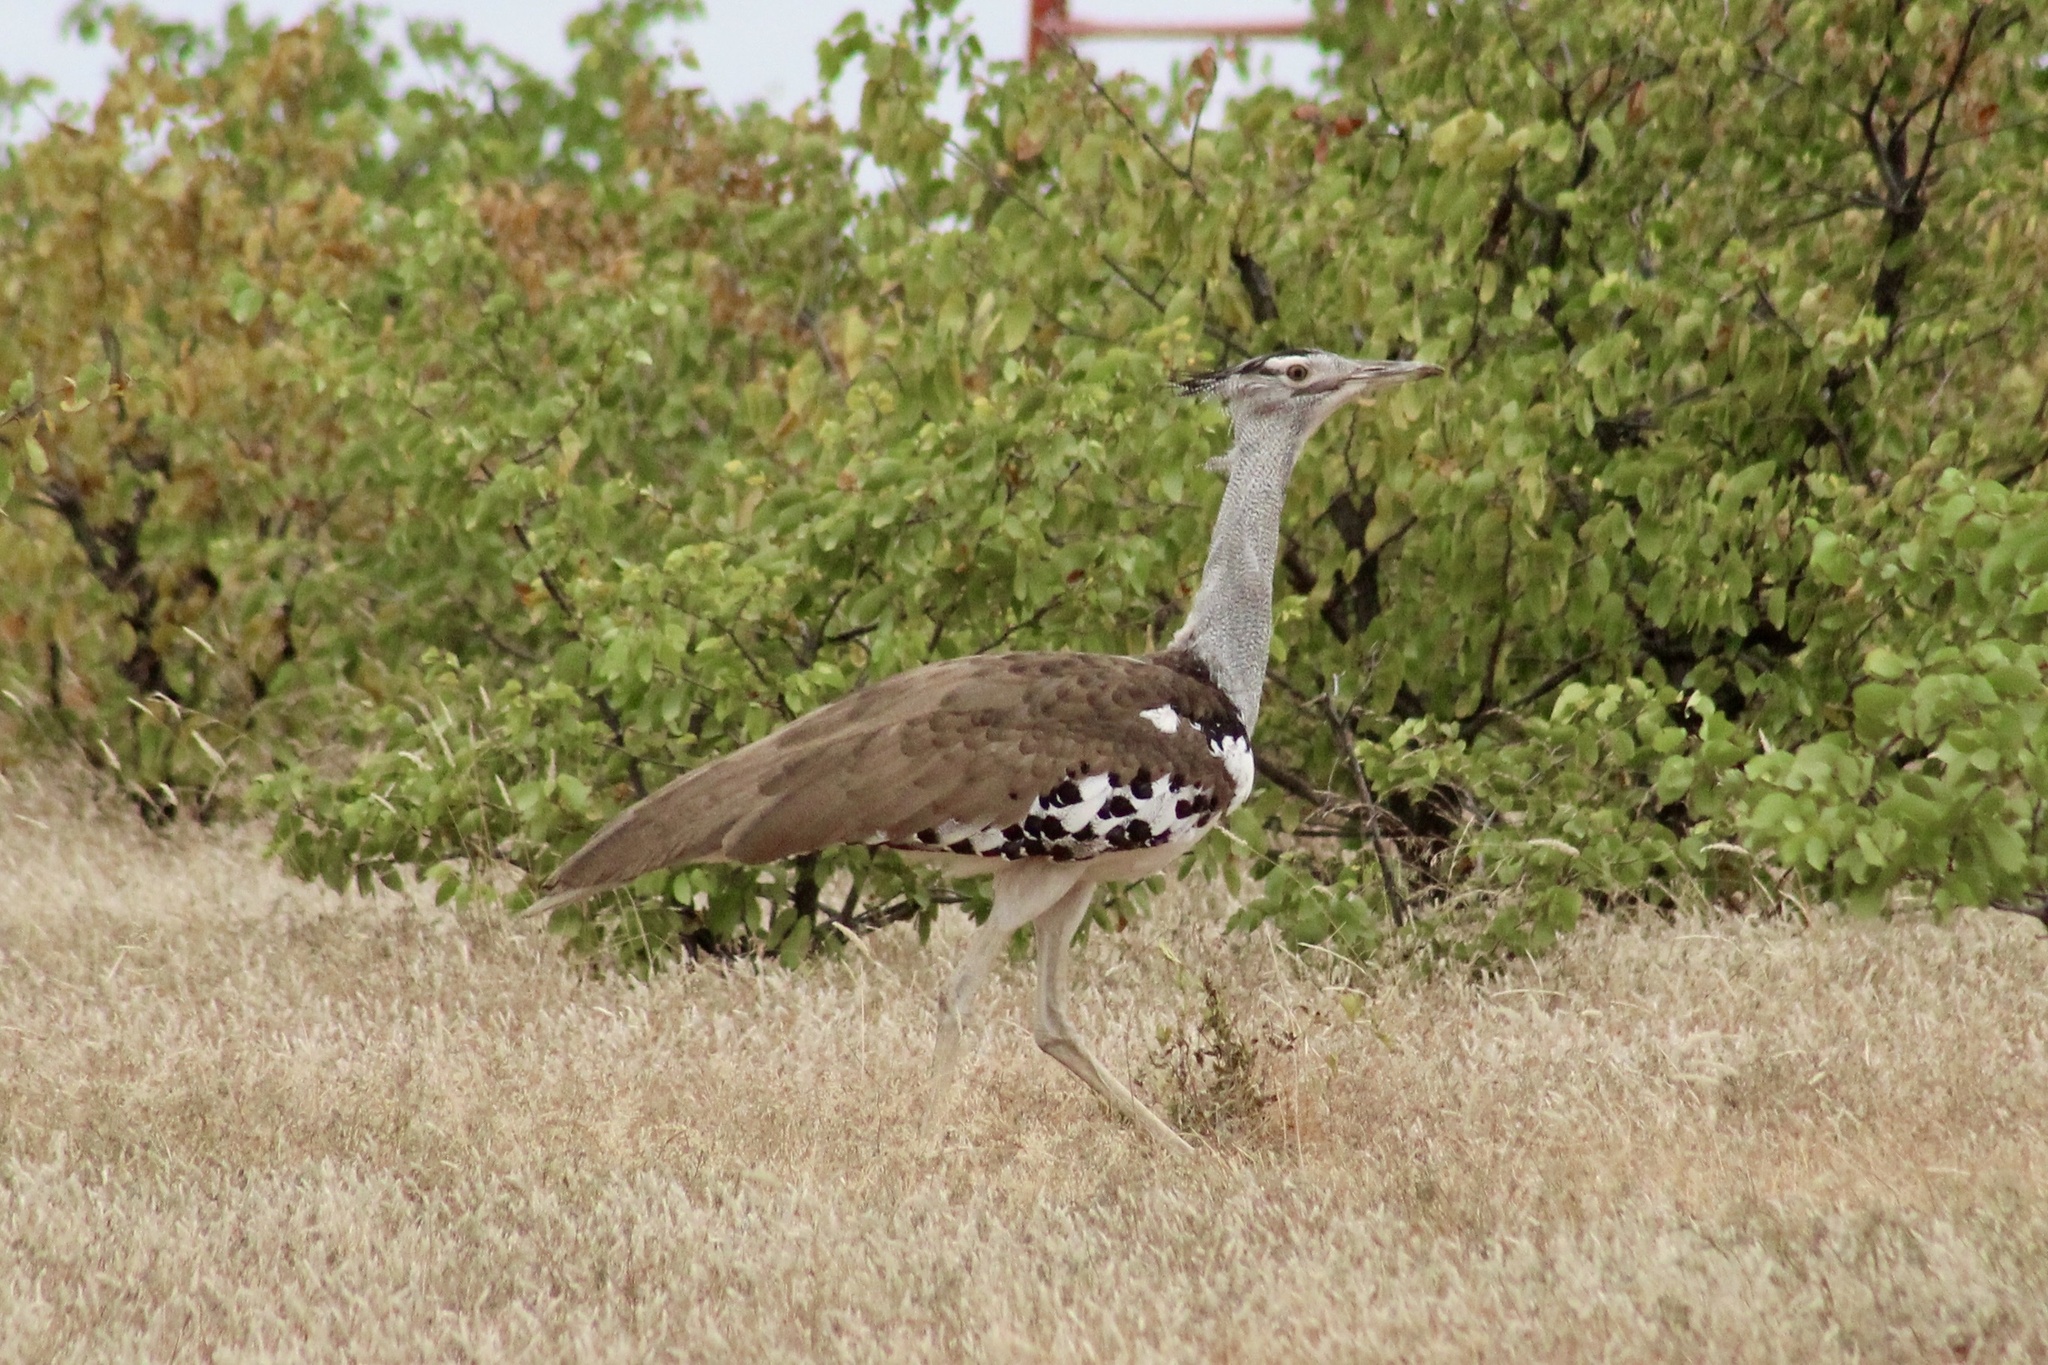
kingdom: Animalia
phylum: Chordata
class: Aves
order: Otidiformes
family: Otididae
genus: Ardeotis
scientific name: Ardeotis kori
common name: Kori bustard
